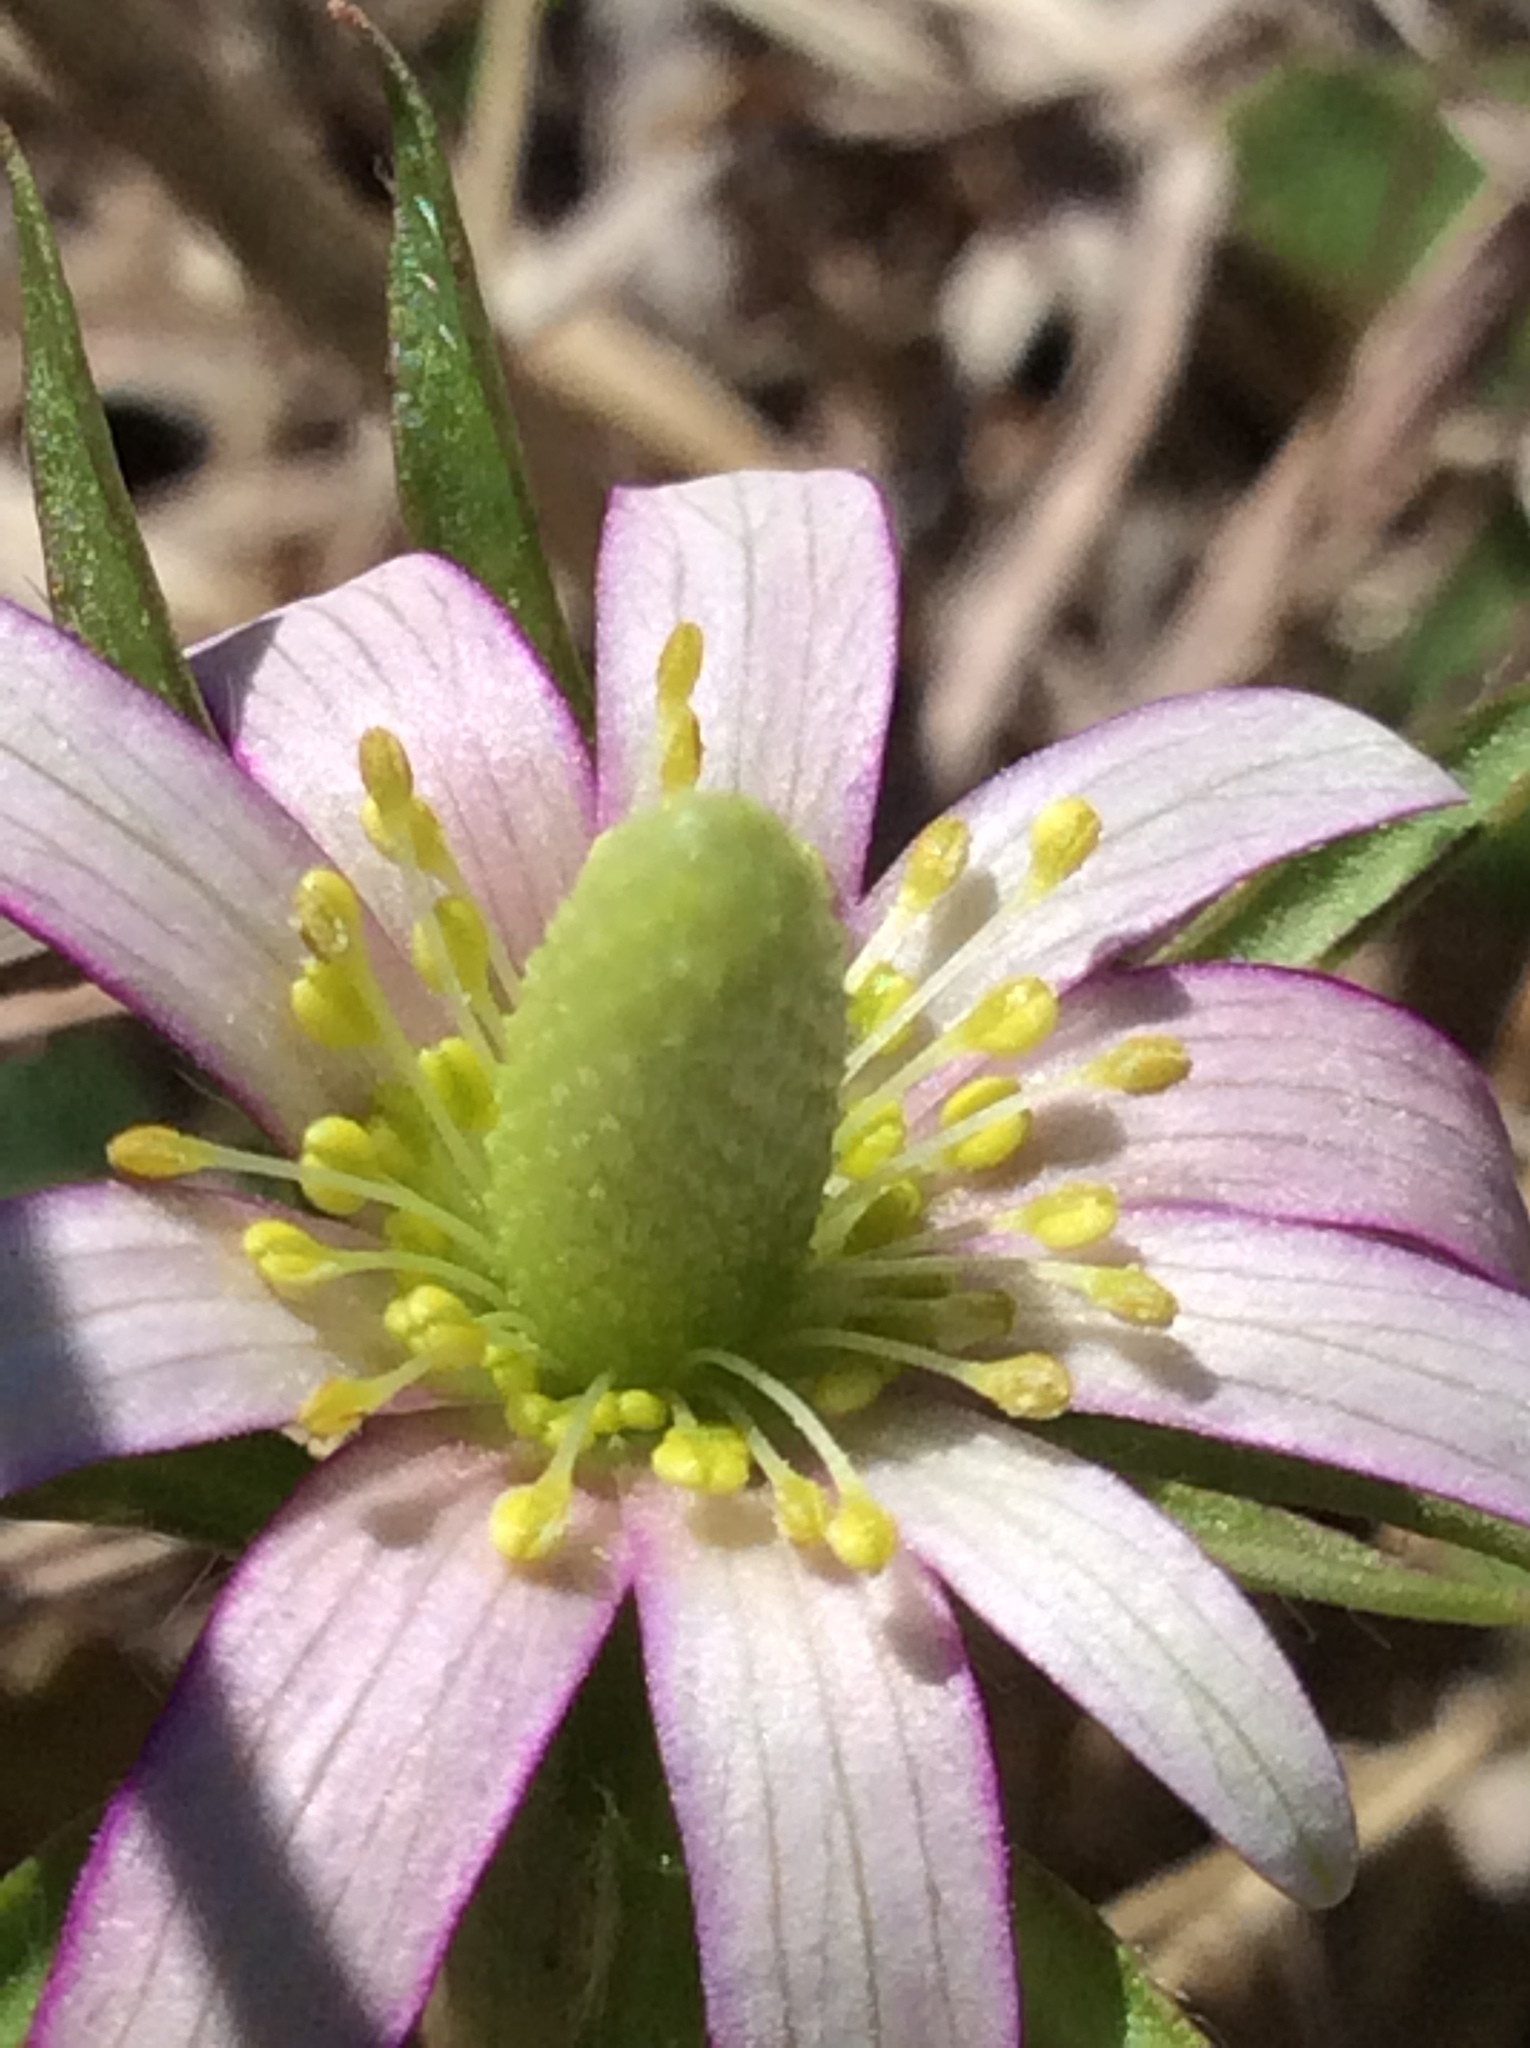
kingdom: Plantae
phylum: Tracheophyta
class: Magnoliopsida
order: Ranunculales
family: Ranunculaceae
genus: Anemone
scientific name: Anemone berlandieri
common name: Ten-petal anemone
